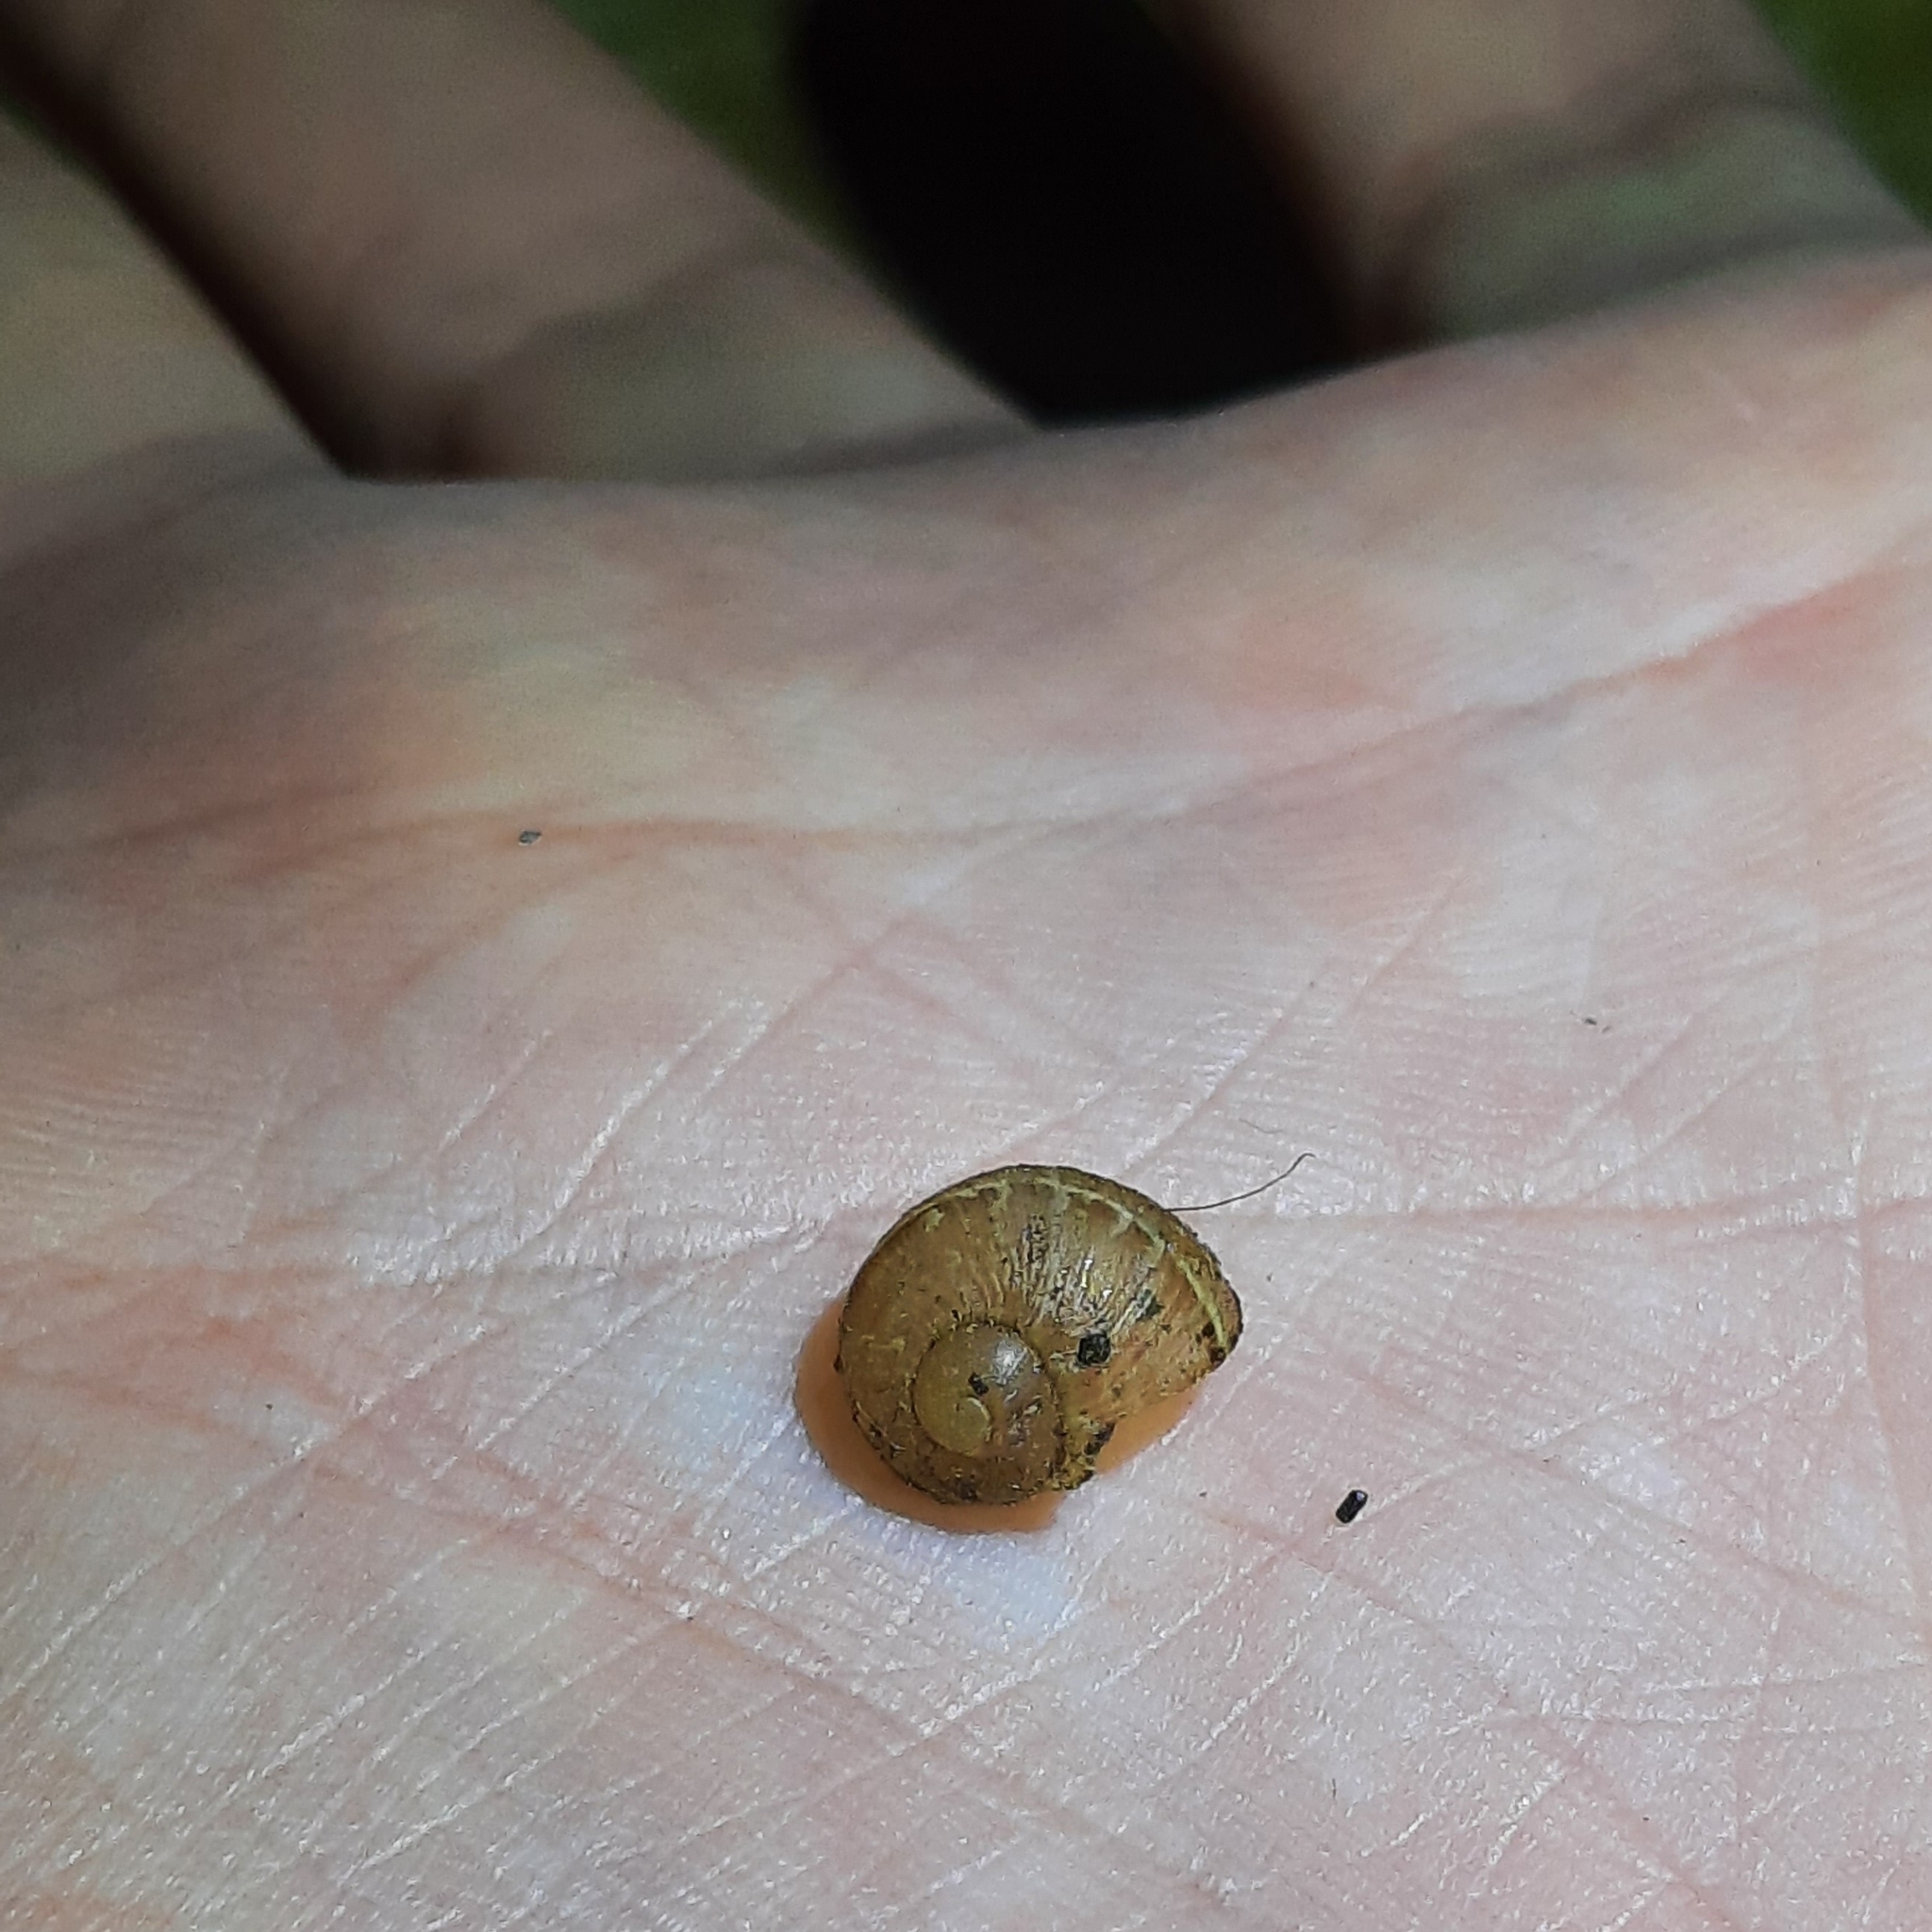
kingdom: Animalia
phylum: Mollusca
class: Gastropoda
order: Stylommatophora
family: Helicidae
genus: Cornu
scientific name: Cornu aspersum
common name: Brown garden snail
